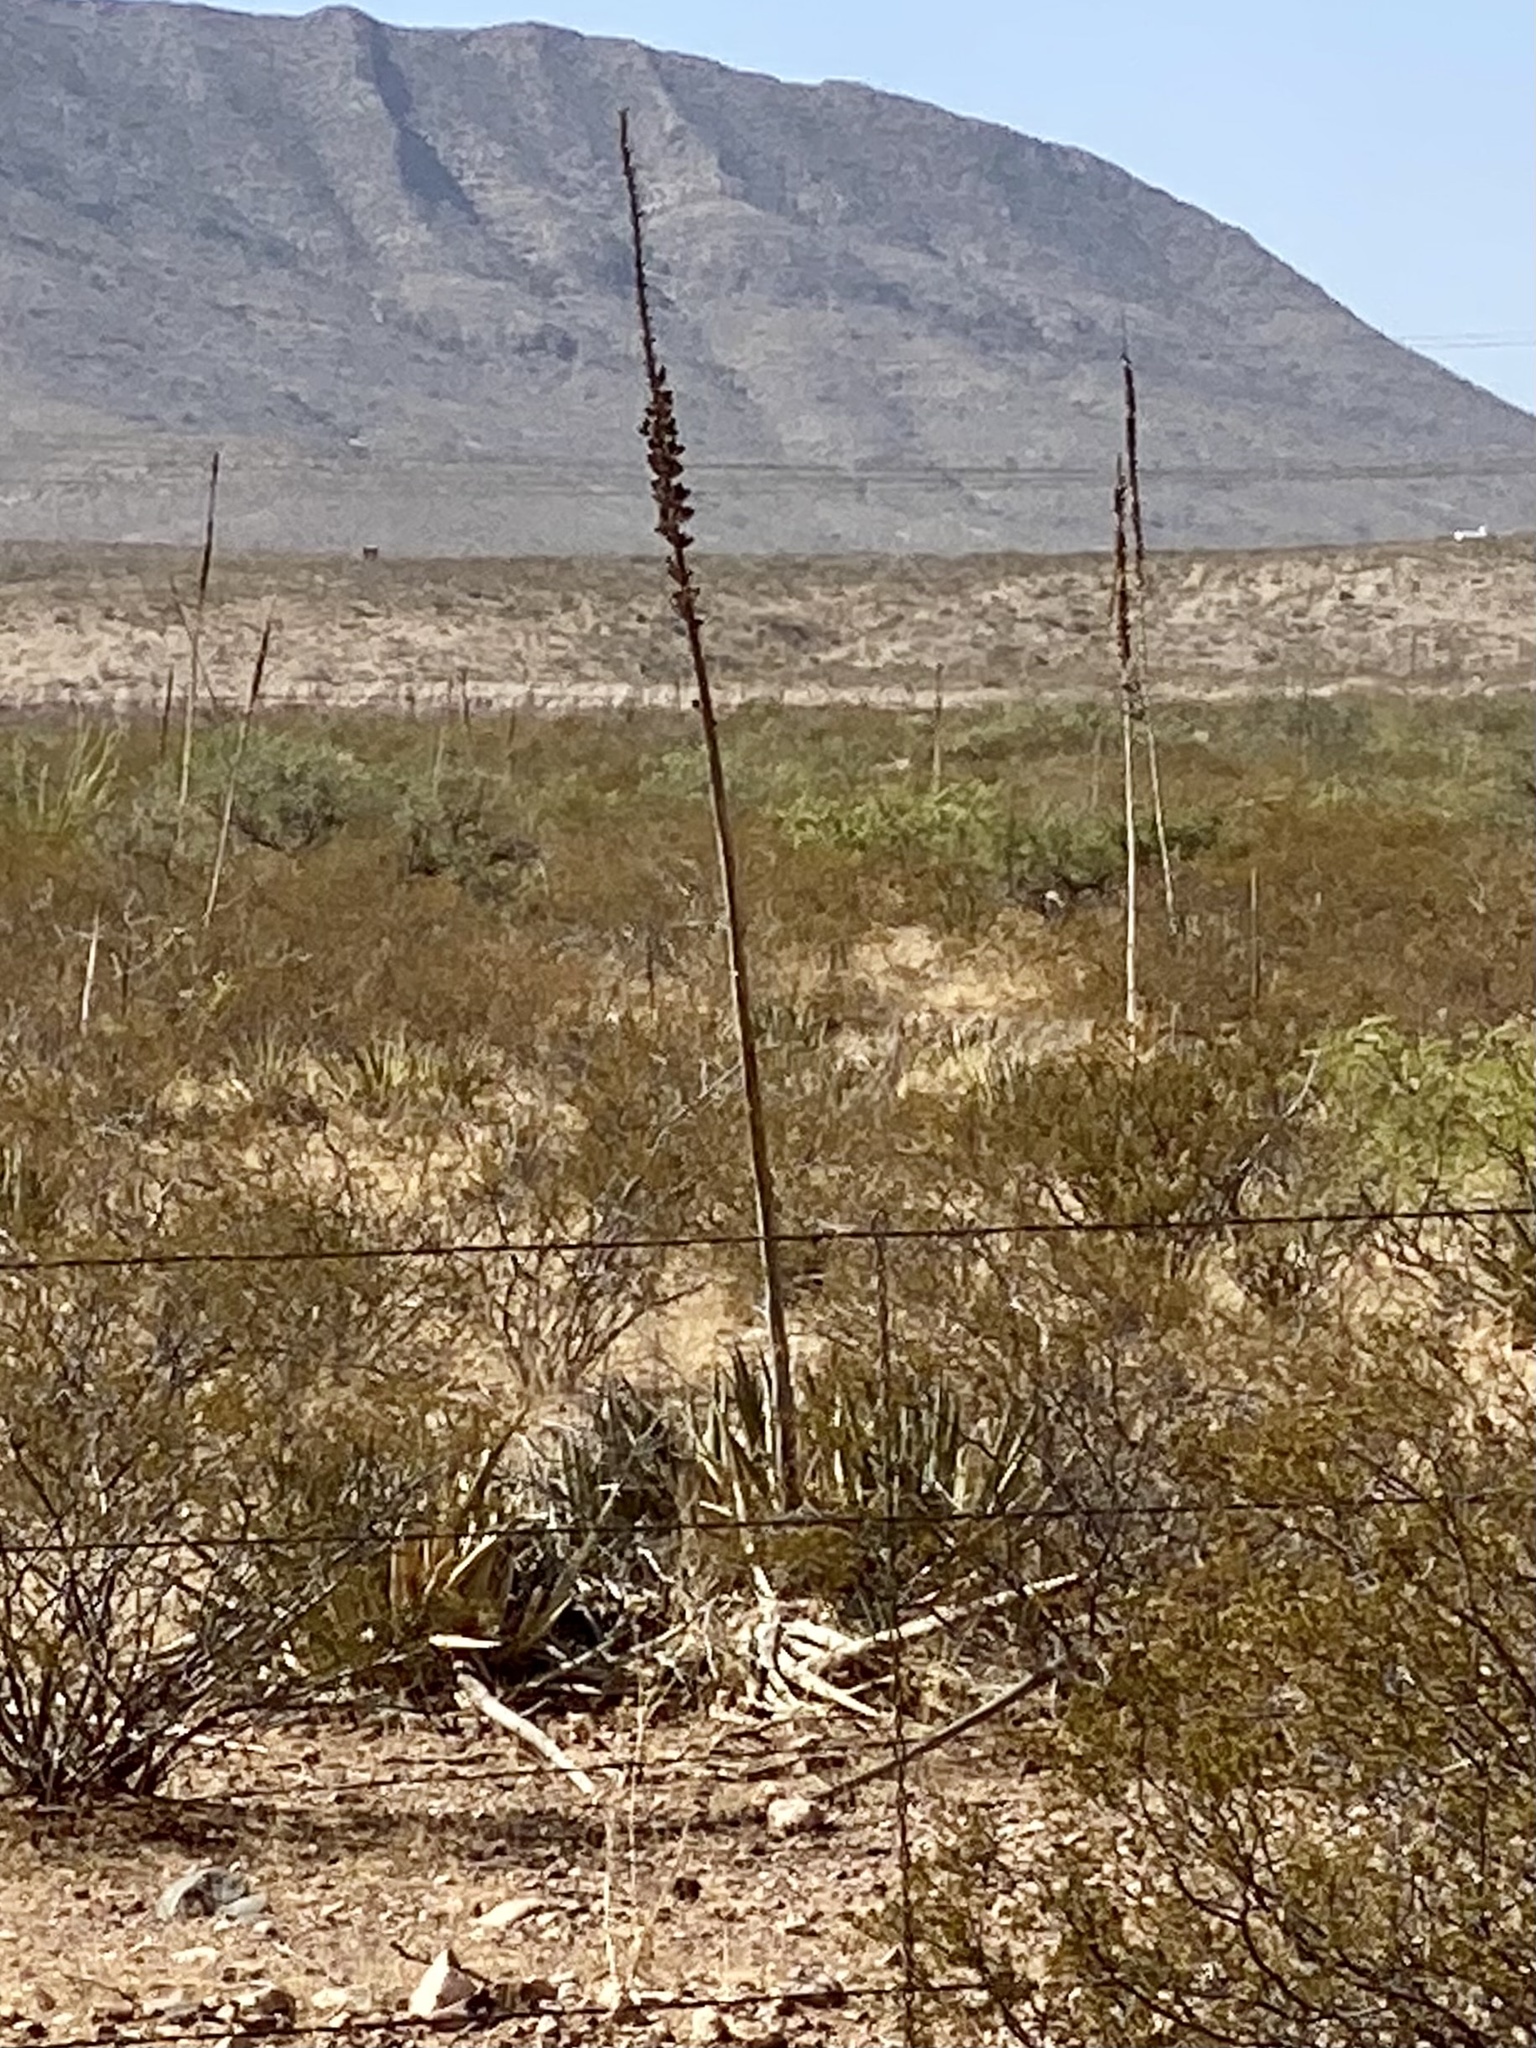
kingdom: Plantae
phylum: Tracheophyta
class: Liliopsida
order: Asparagales
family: Asparagaceae
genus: Agave
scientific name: Agave lechuguilla
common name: Lecheguilla agave
